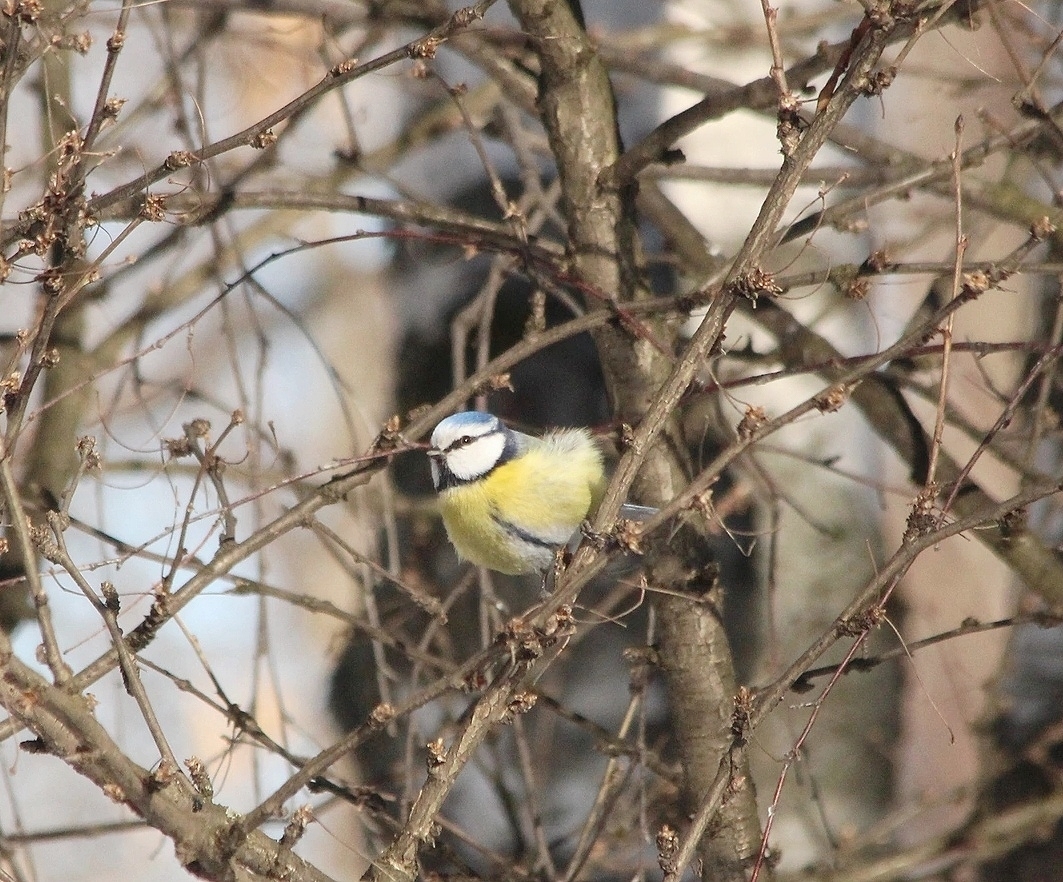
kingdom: Animalia
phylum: Chordata
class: Aves
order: Passeriformes
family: Paridae
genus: Cyanistes
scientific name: Cyanistes caeruleus
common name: Eurasian blue tit
